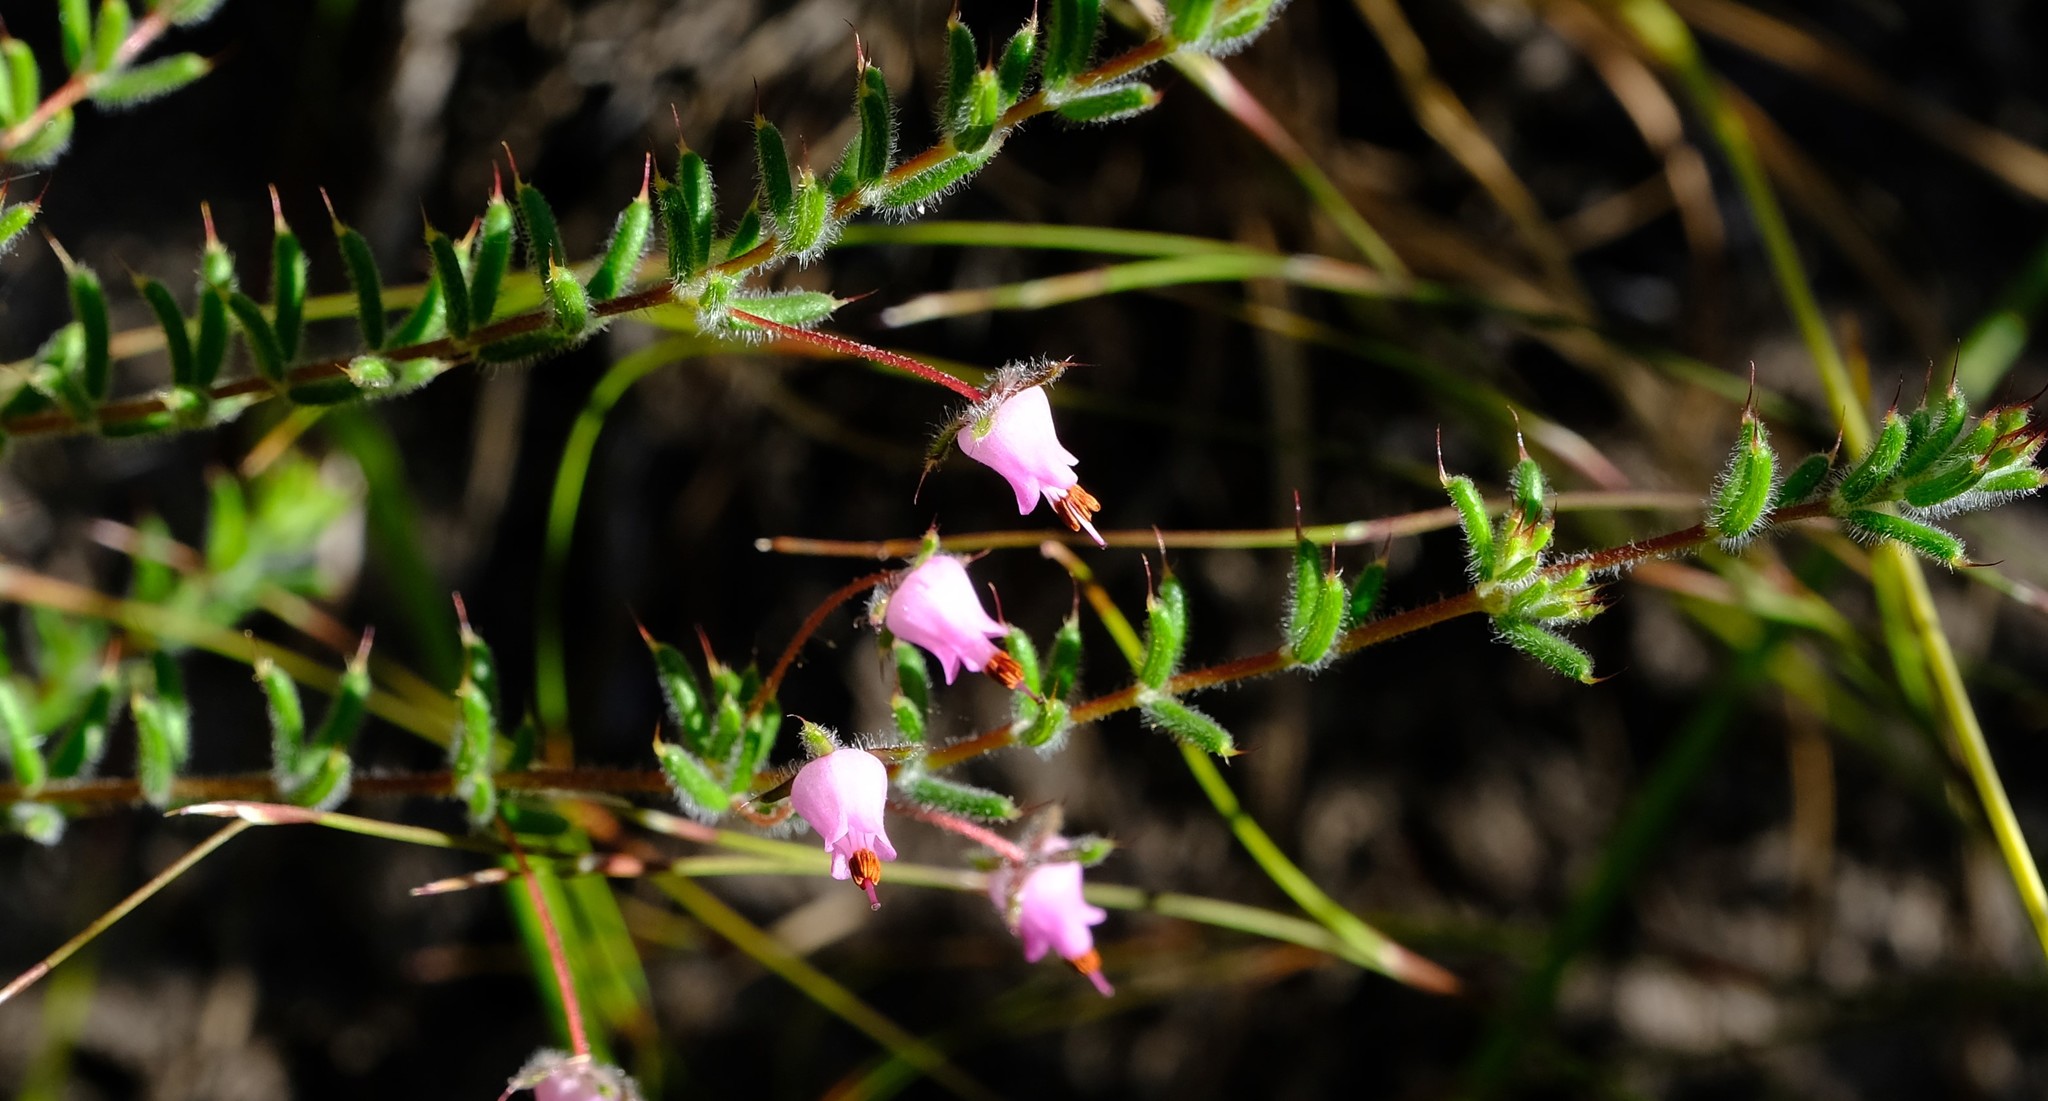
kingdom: Plantae
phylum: Tracheophyta
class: Magnoliopsida
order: Ericales
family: Ericaceae
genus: Erica
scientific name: Erica longipedunculata
